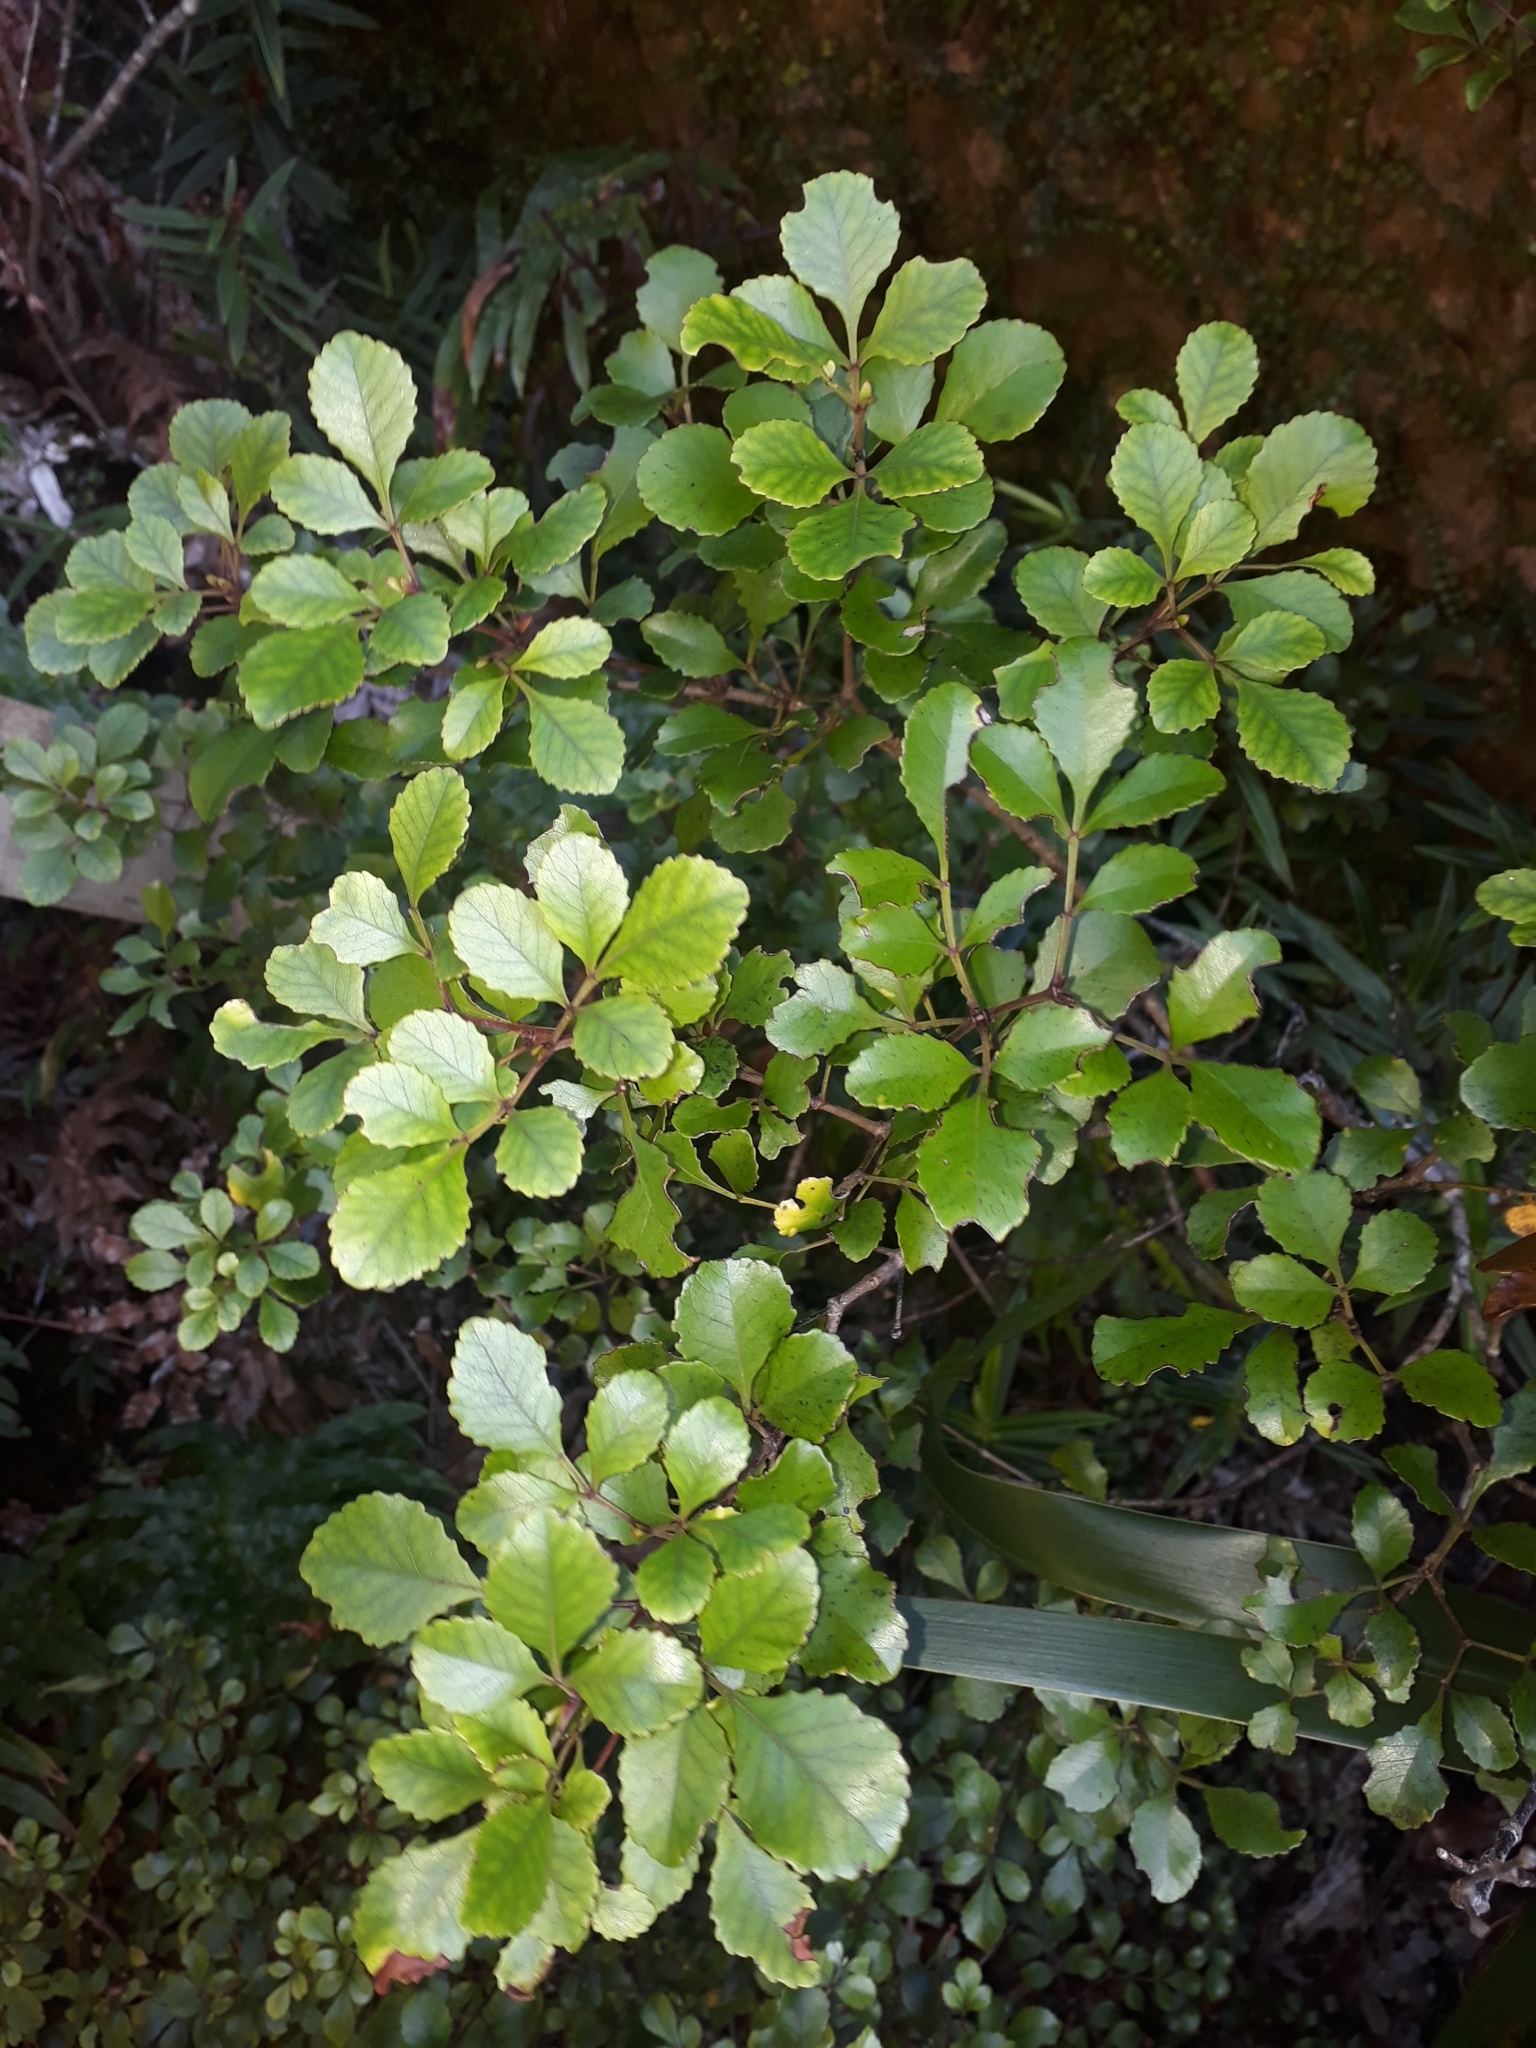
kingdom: Plantae
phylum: Tracheophyta
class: Magnoliopsida
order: Oxalidales
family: Cunoniaceae
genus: Pterophylla
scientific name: Pterophylla sylvicola
